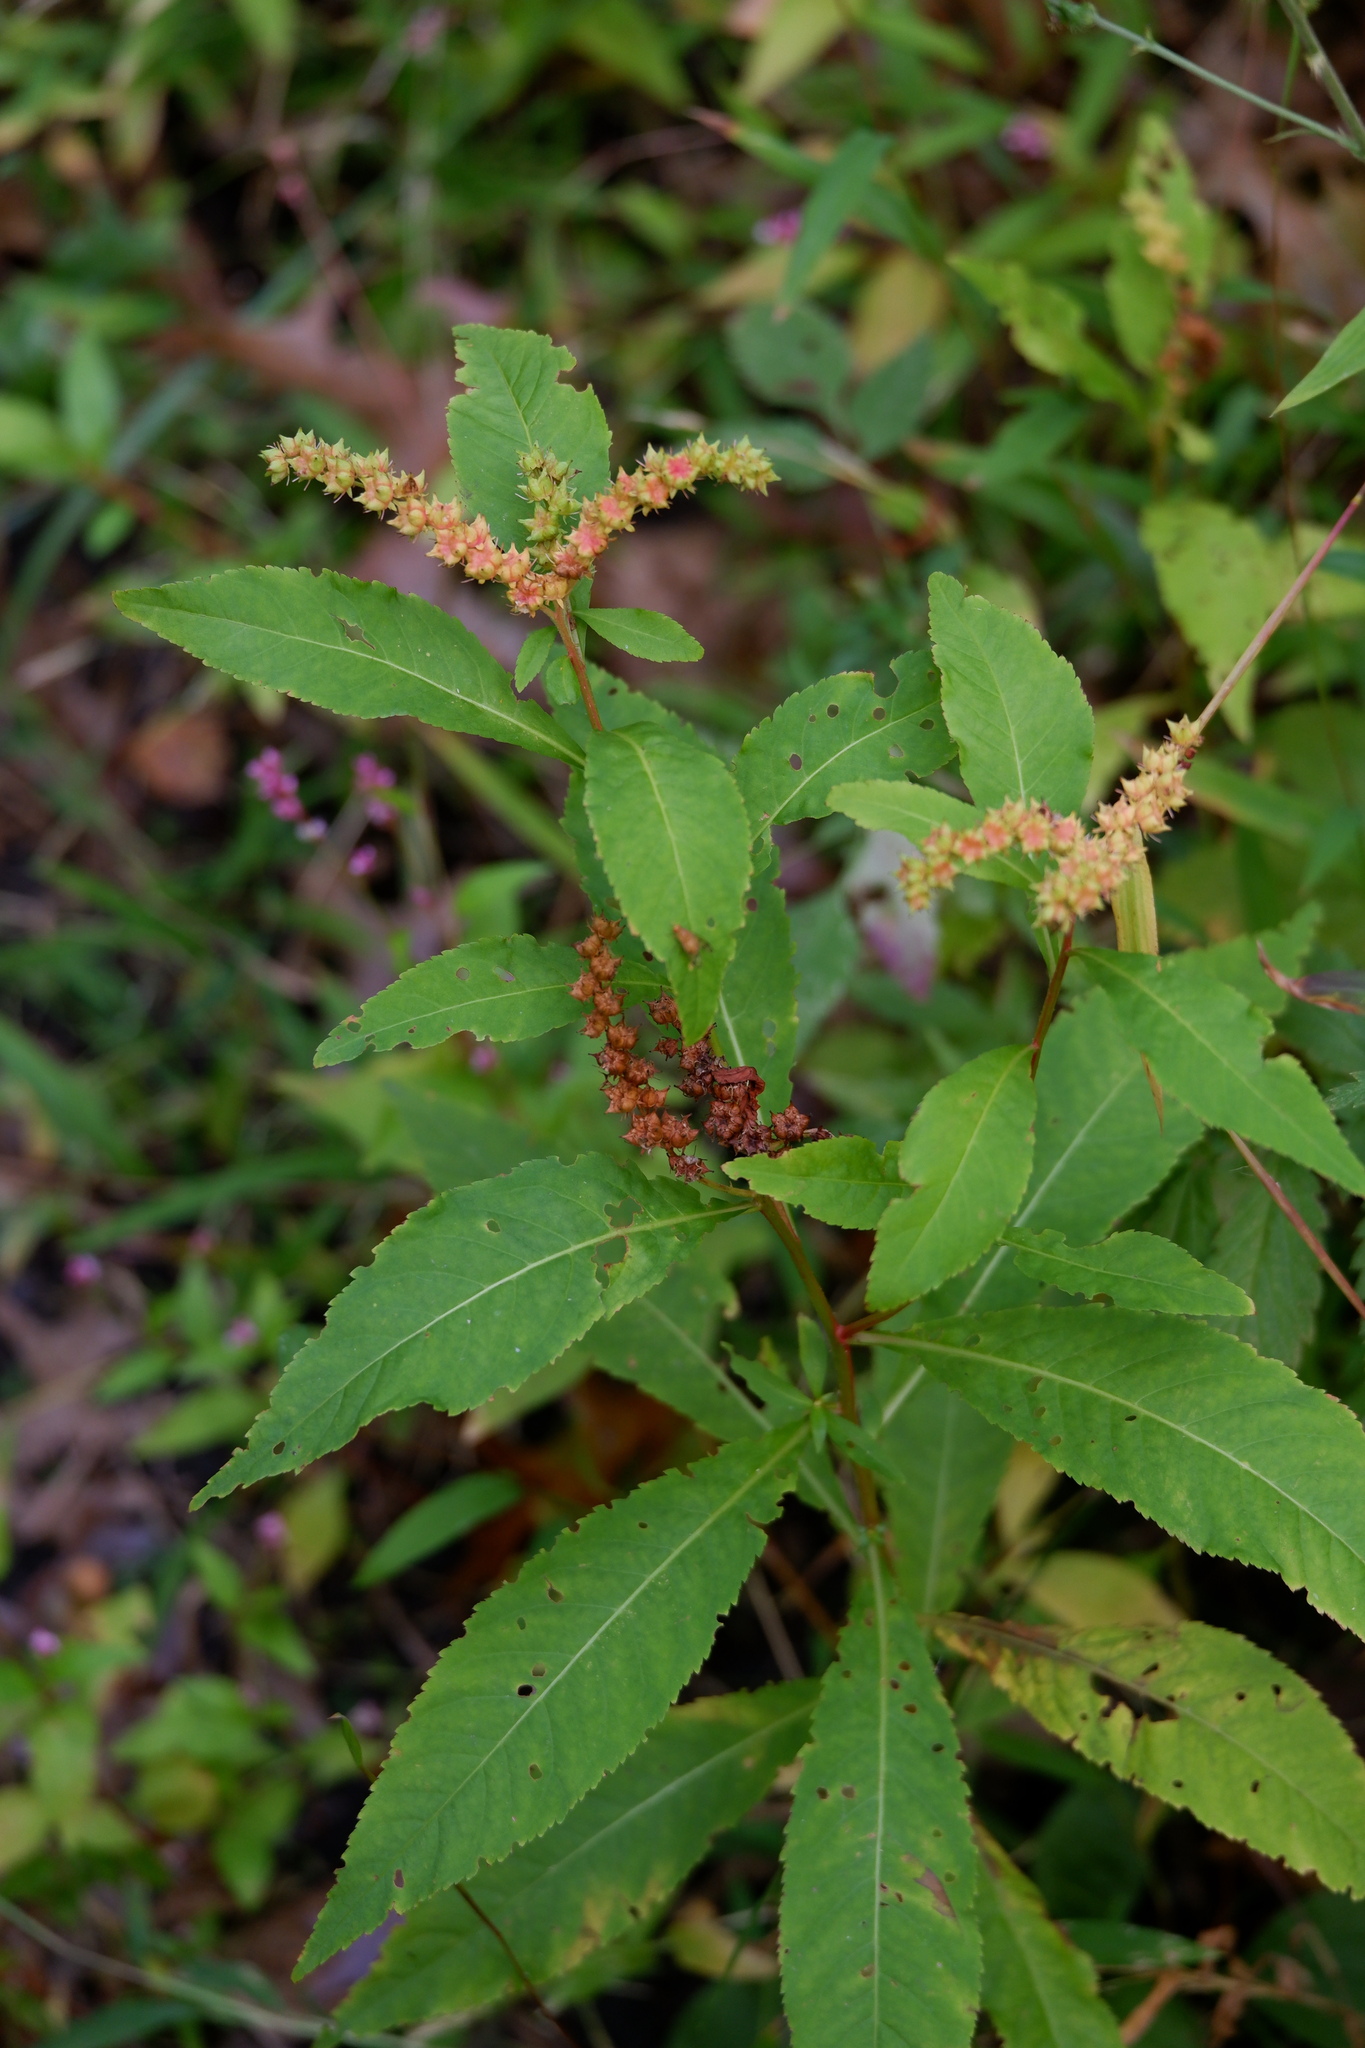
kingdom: Plantae
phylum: Tracheophyta
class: Magnoliopsida
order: Saxifragales
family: Penthoraceae
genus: Penthorum
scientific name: Penthorum sedoides
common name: Ditch stonecrop
